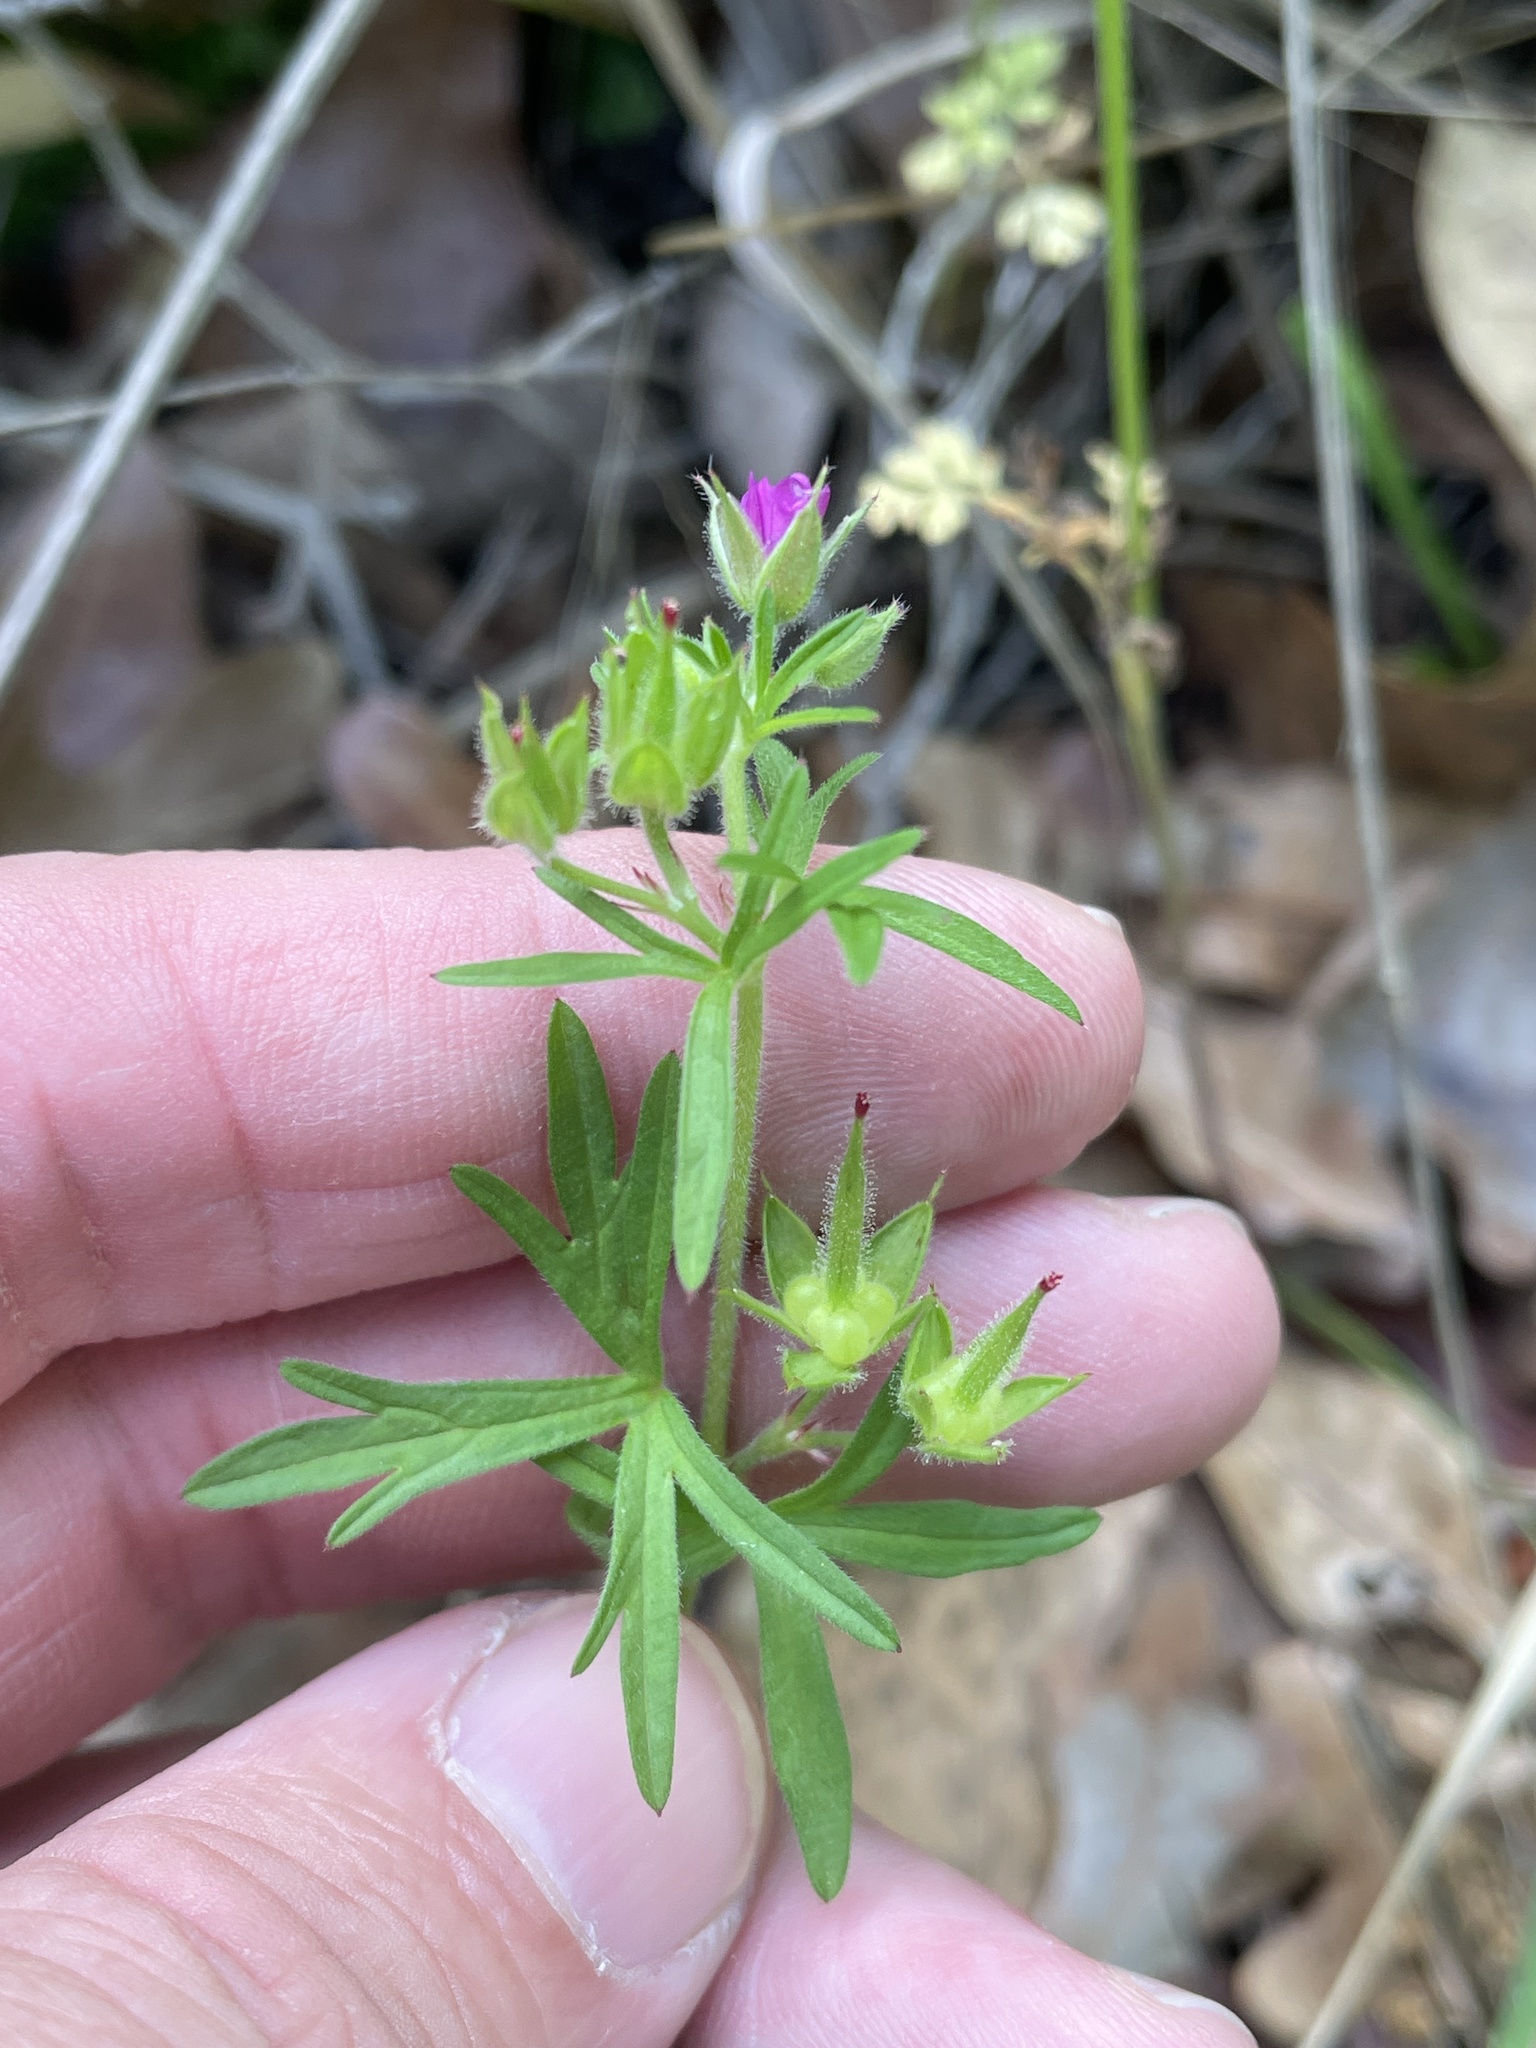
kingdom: Plantae
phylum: Tracheophyta
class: Magnoliopsida
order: Geraniales
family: Geraniaceae
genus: Geranium
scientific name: Geranium dissectum
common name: Cut-leaved crane's-bill
